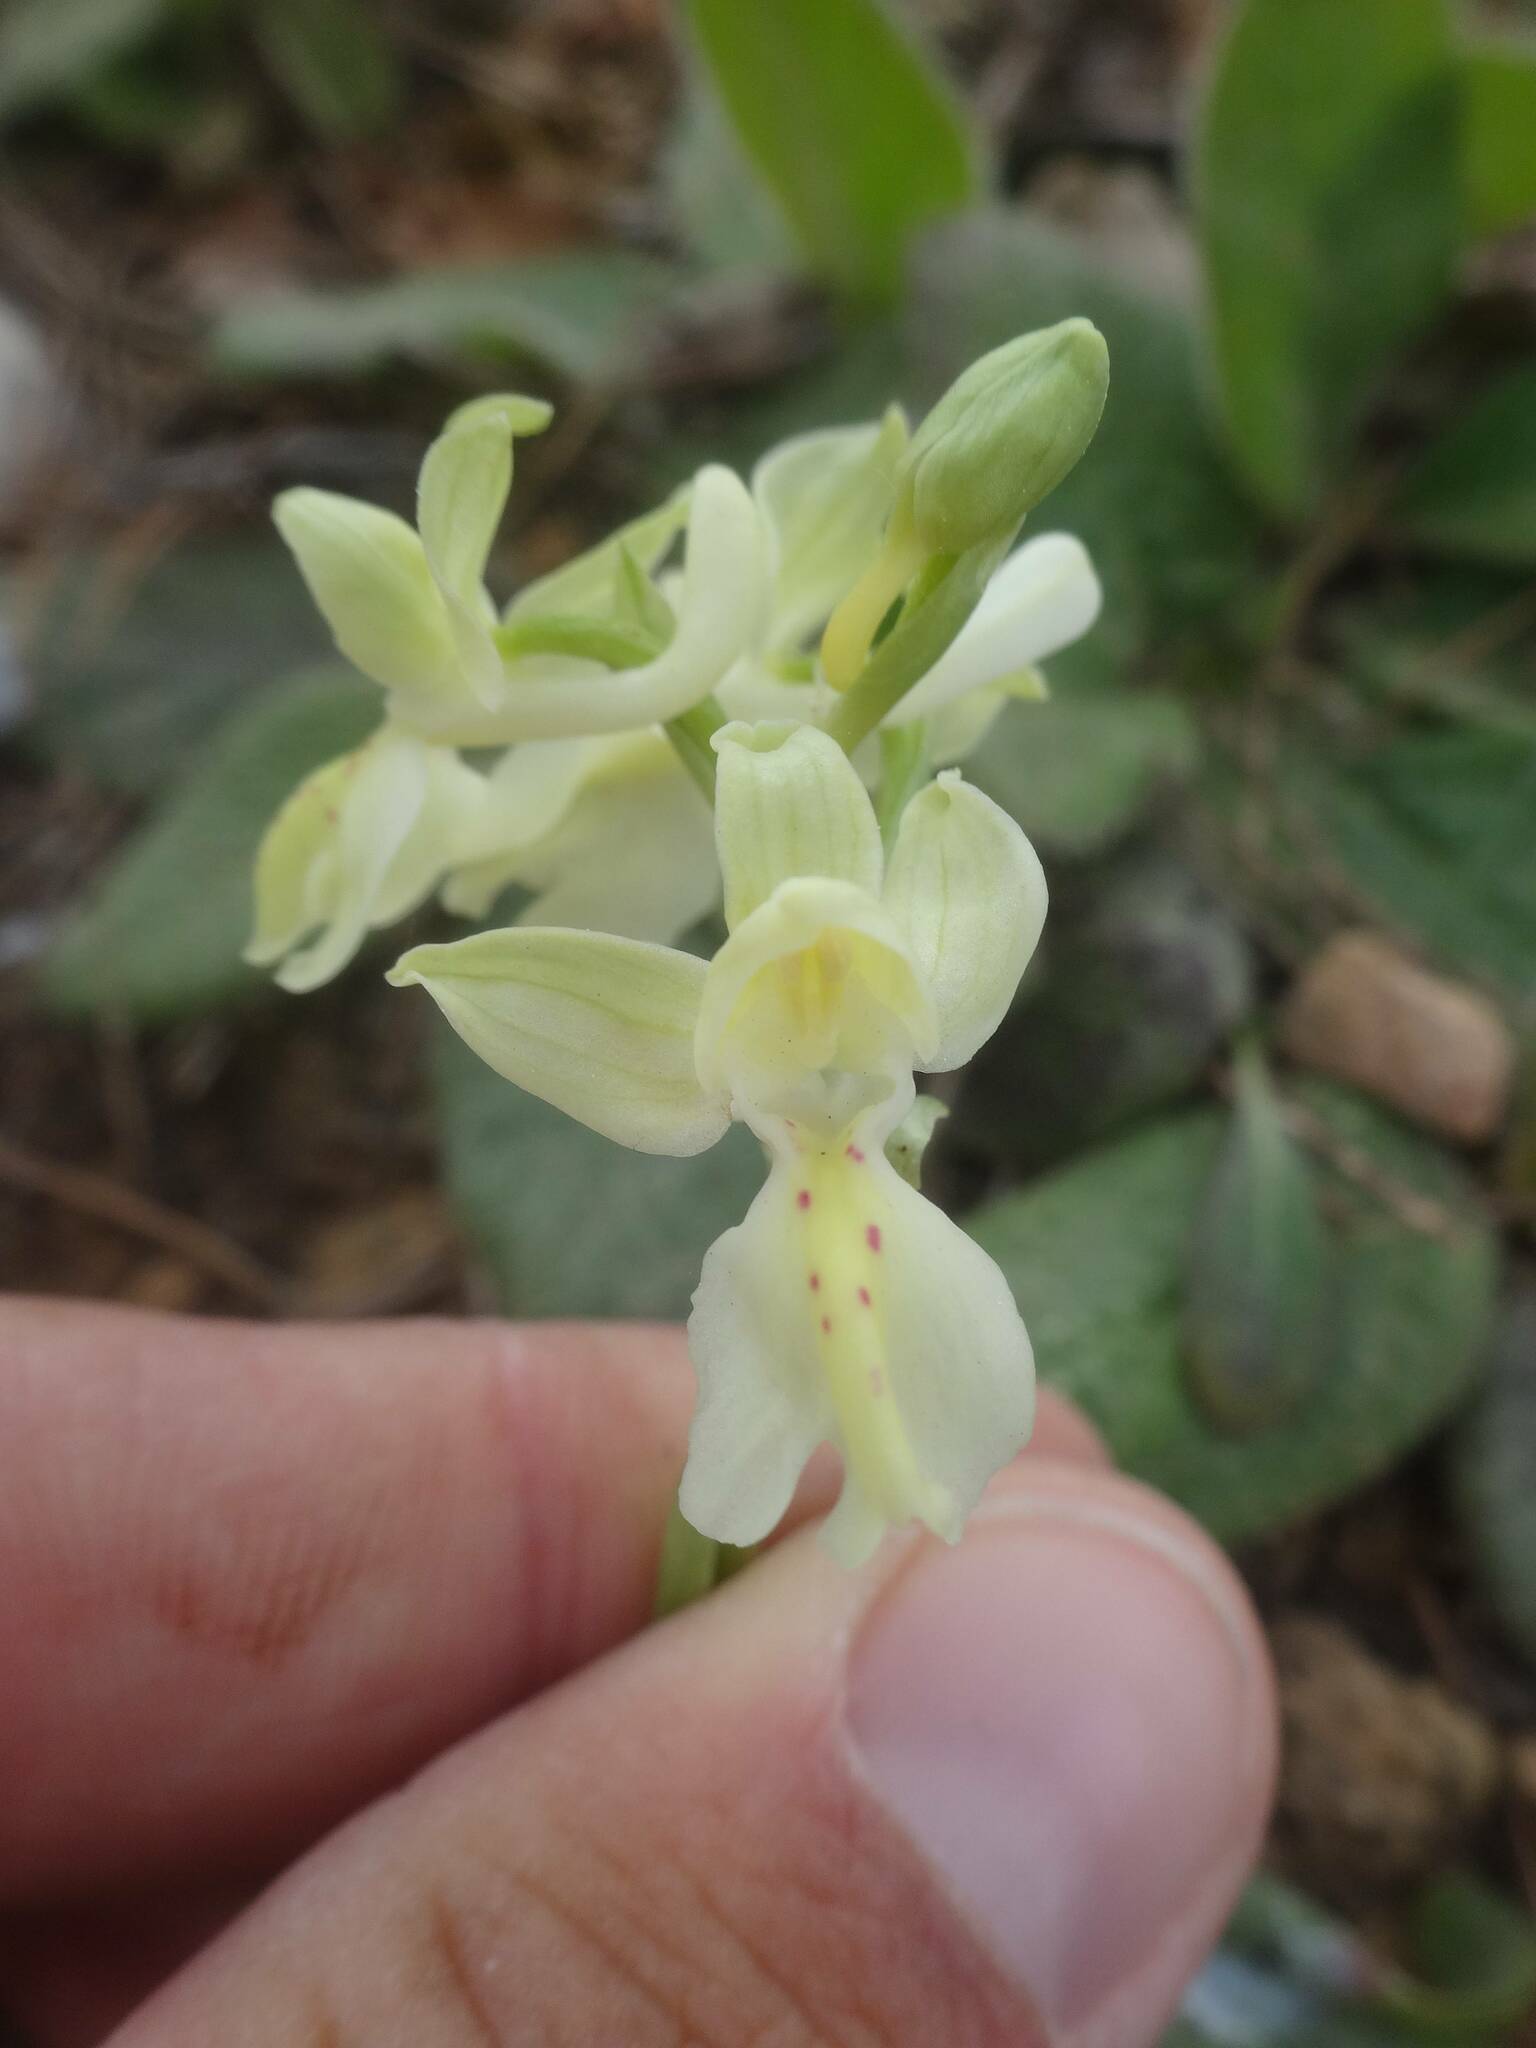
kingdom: Plantae
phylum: Tracheophyta
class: Liliopsida
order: Asparagales
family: Orchidaceae
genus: Orchis
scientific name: Orchis provincialis
